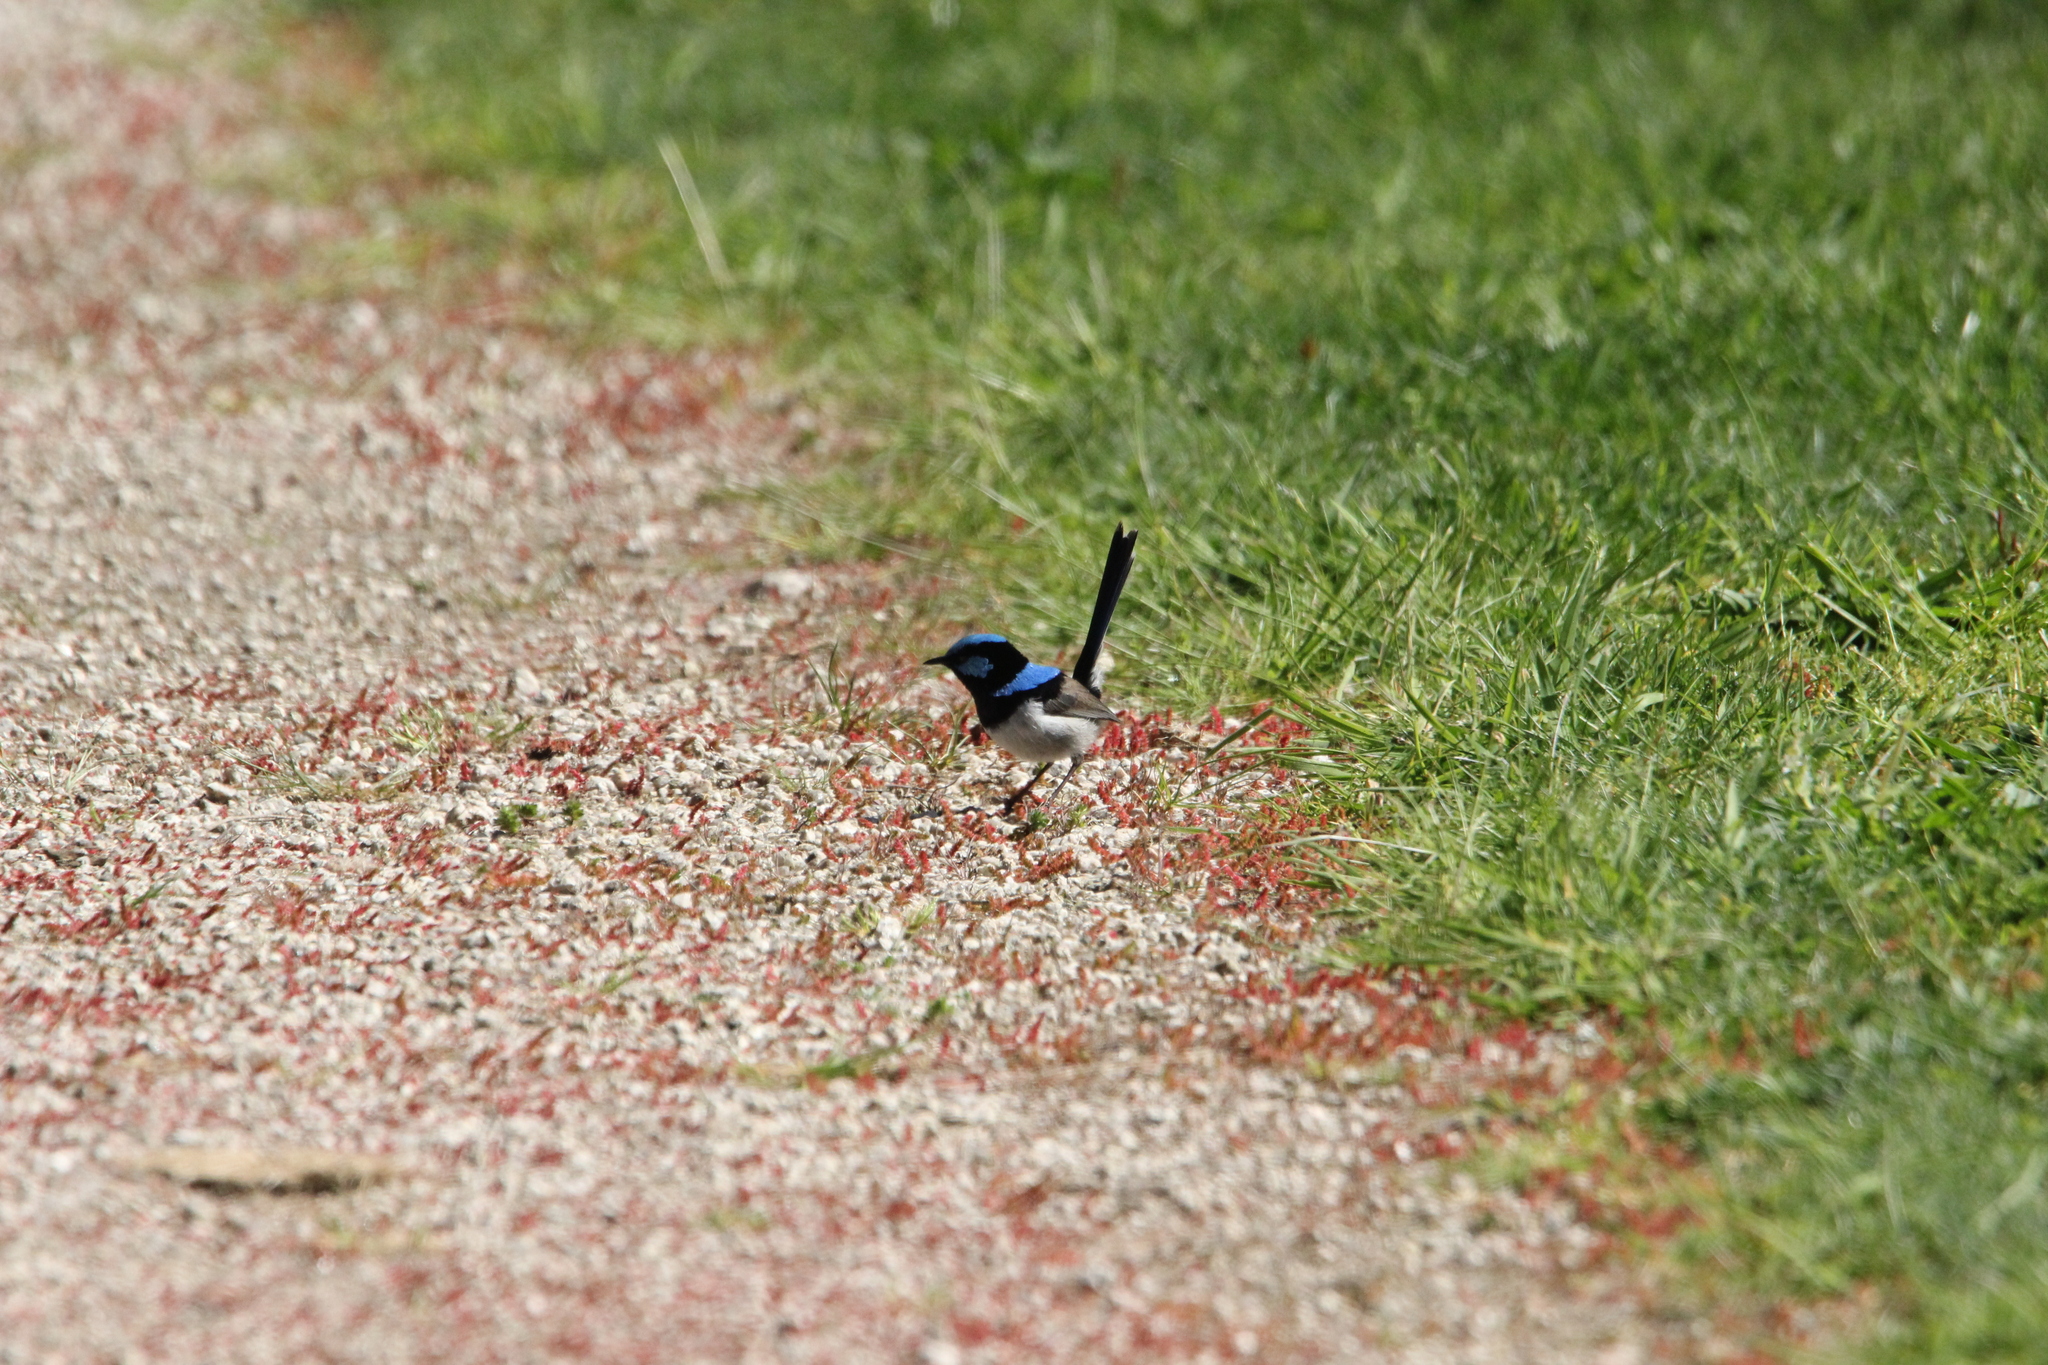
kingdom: Animalia
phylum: Chordata
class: Aves
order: Passeriformes
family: Maluridae
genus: Malurus
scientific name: Malurus cyaneus
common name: Superb fairywren
